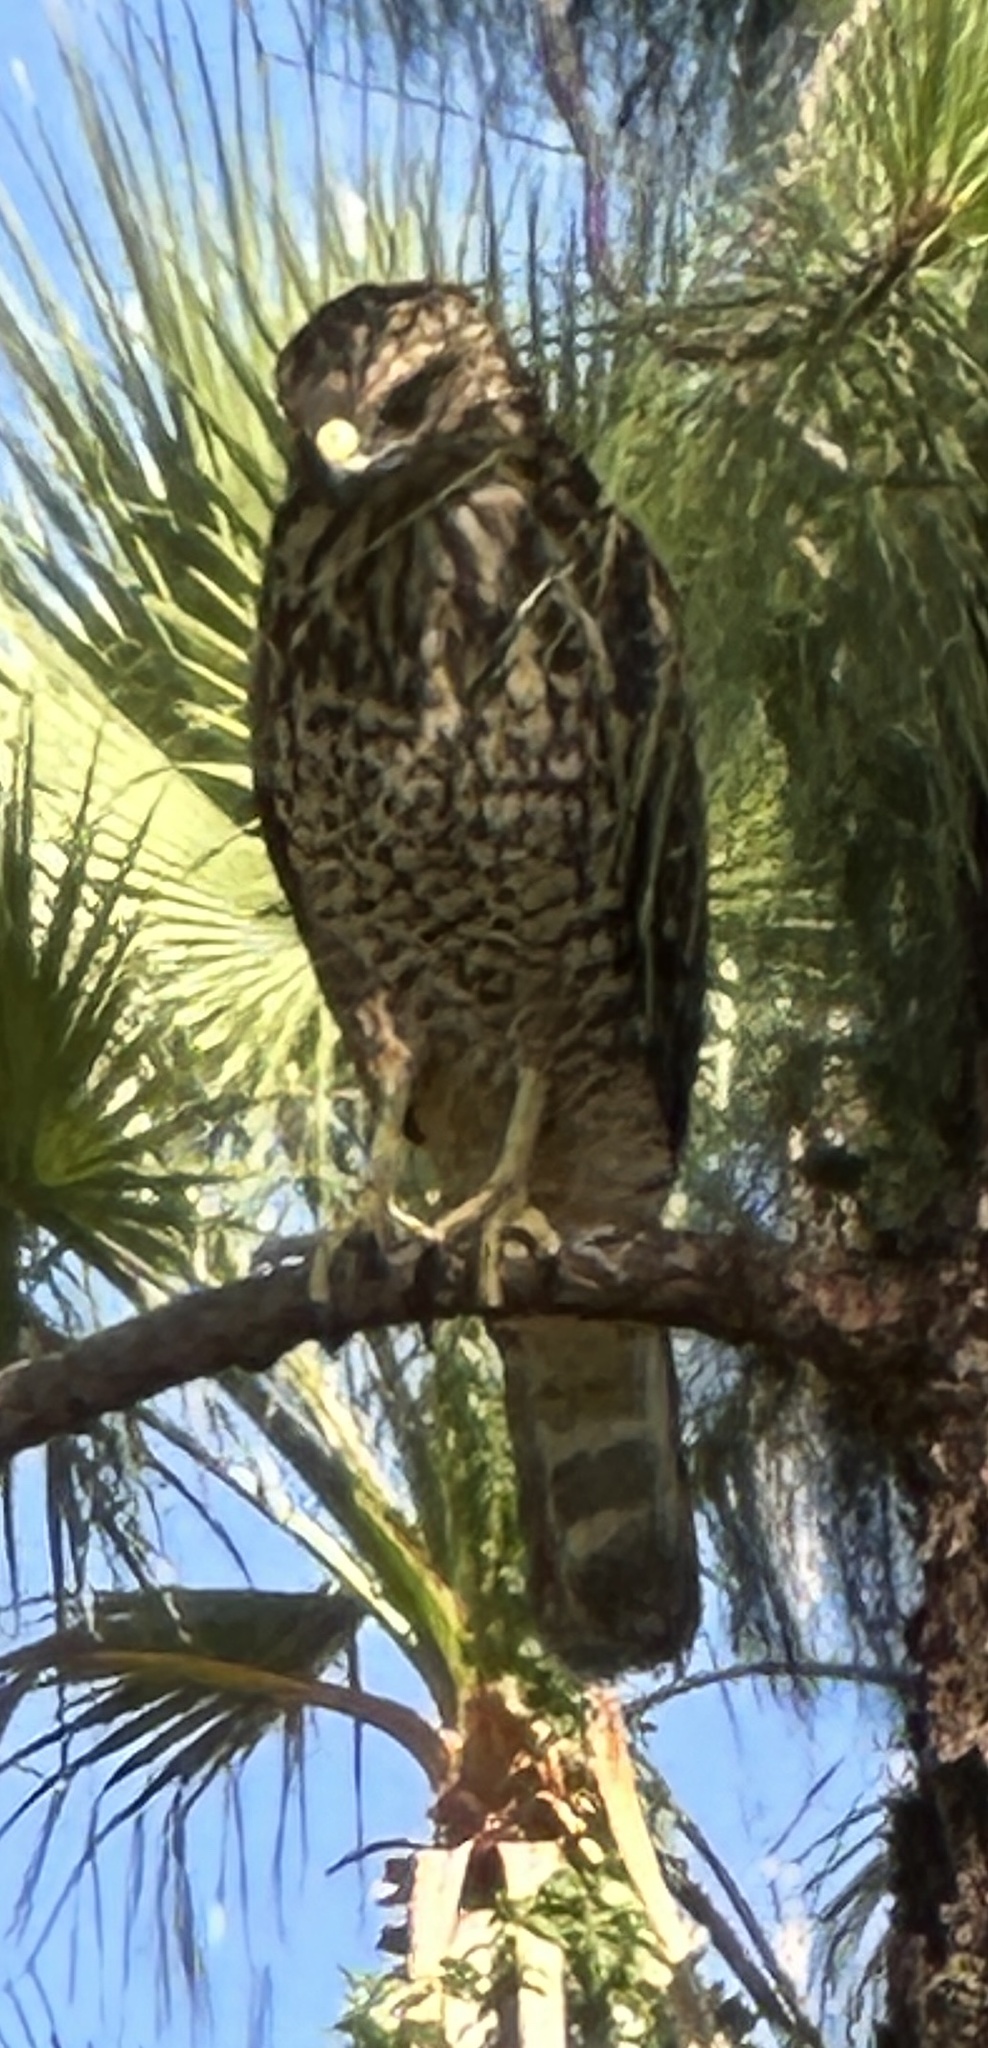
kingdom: Animalia
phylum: Chordata
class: Aves
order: Accipitriformes
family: Accipitridae
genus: Buteo
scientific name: Buteo lineatus
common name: Red-shouldered hawk
